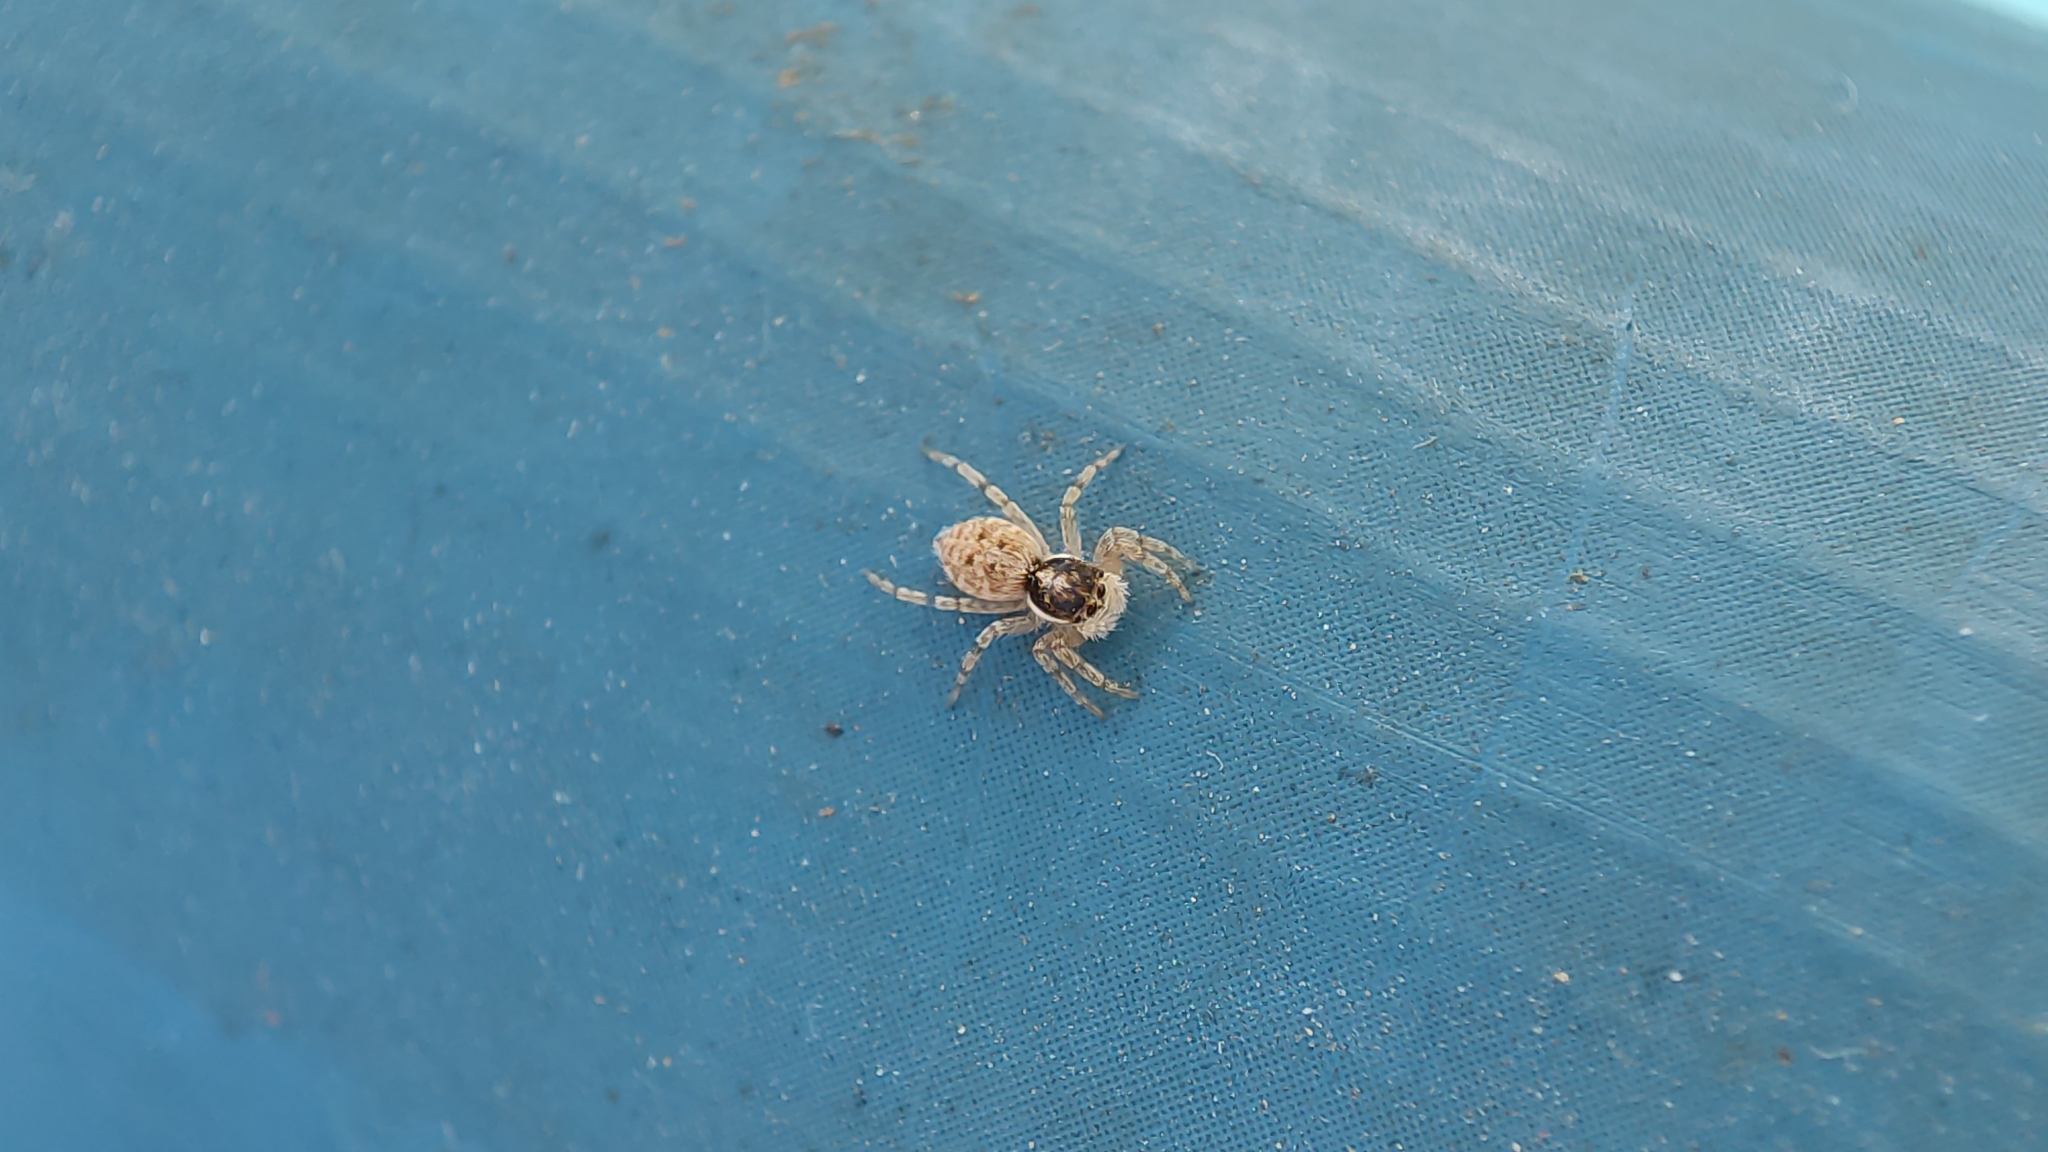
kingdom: Animalia
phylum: Arthropoda
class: Arachnida
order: Araneae
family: Salticidae
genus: Menemerus
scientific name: Menemerus semilimbatus
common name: Jumping spider
